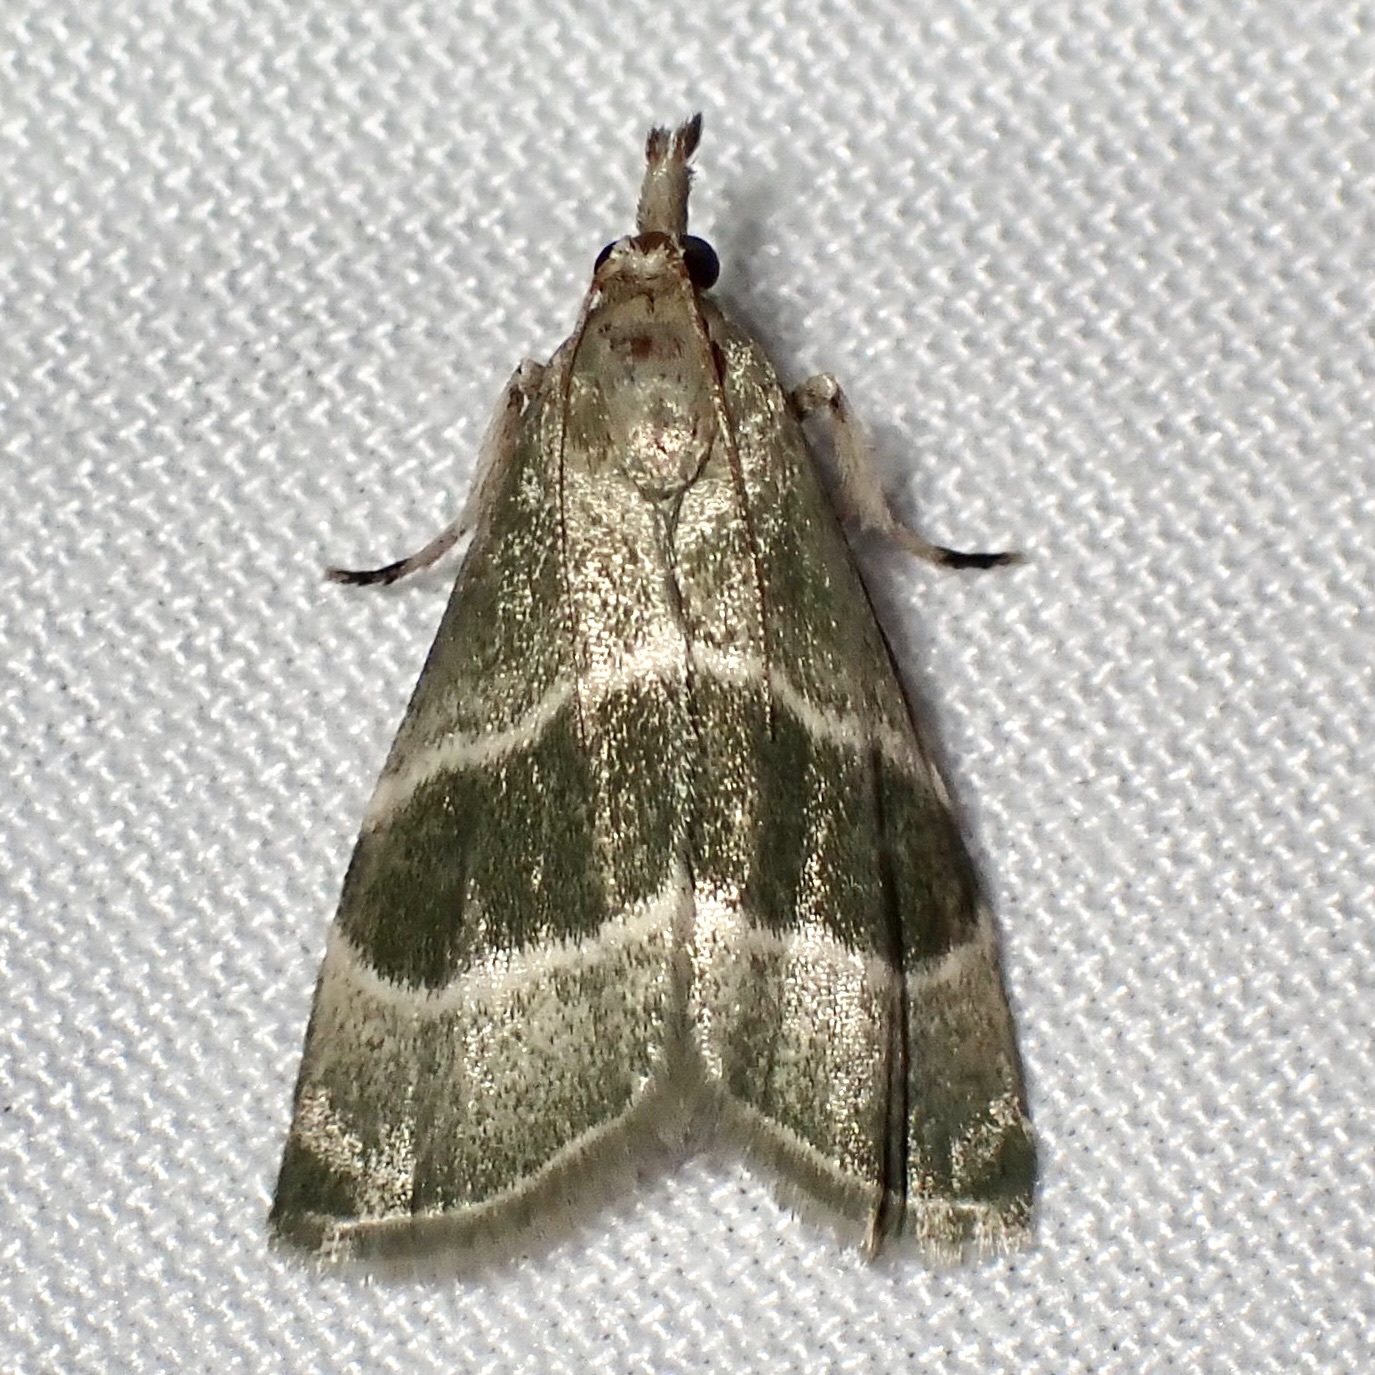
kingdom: Animalia
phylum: Arthropoda
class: Insecta
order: Lepidoptera
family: Pyralidae
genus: Anemosella
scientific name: Anemosella viridalis
